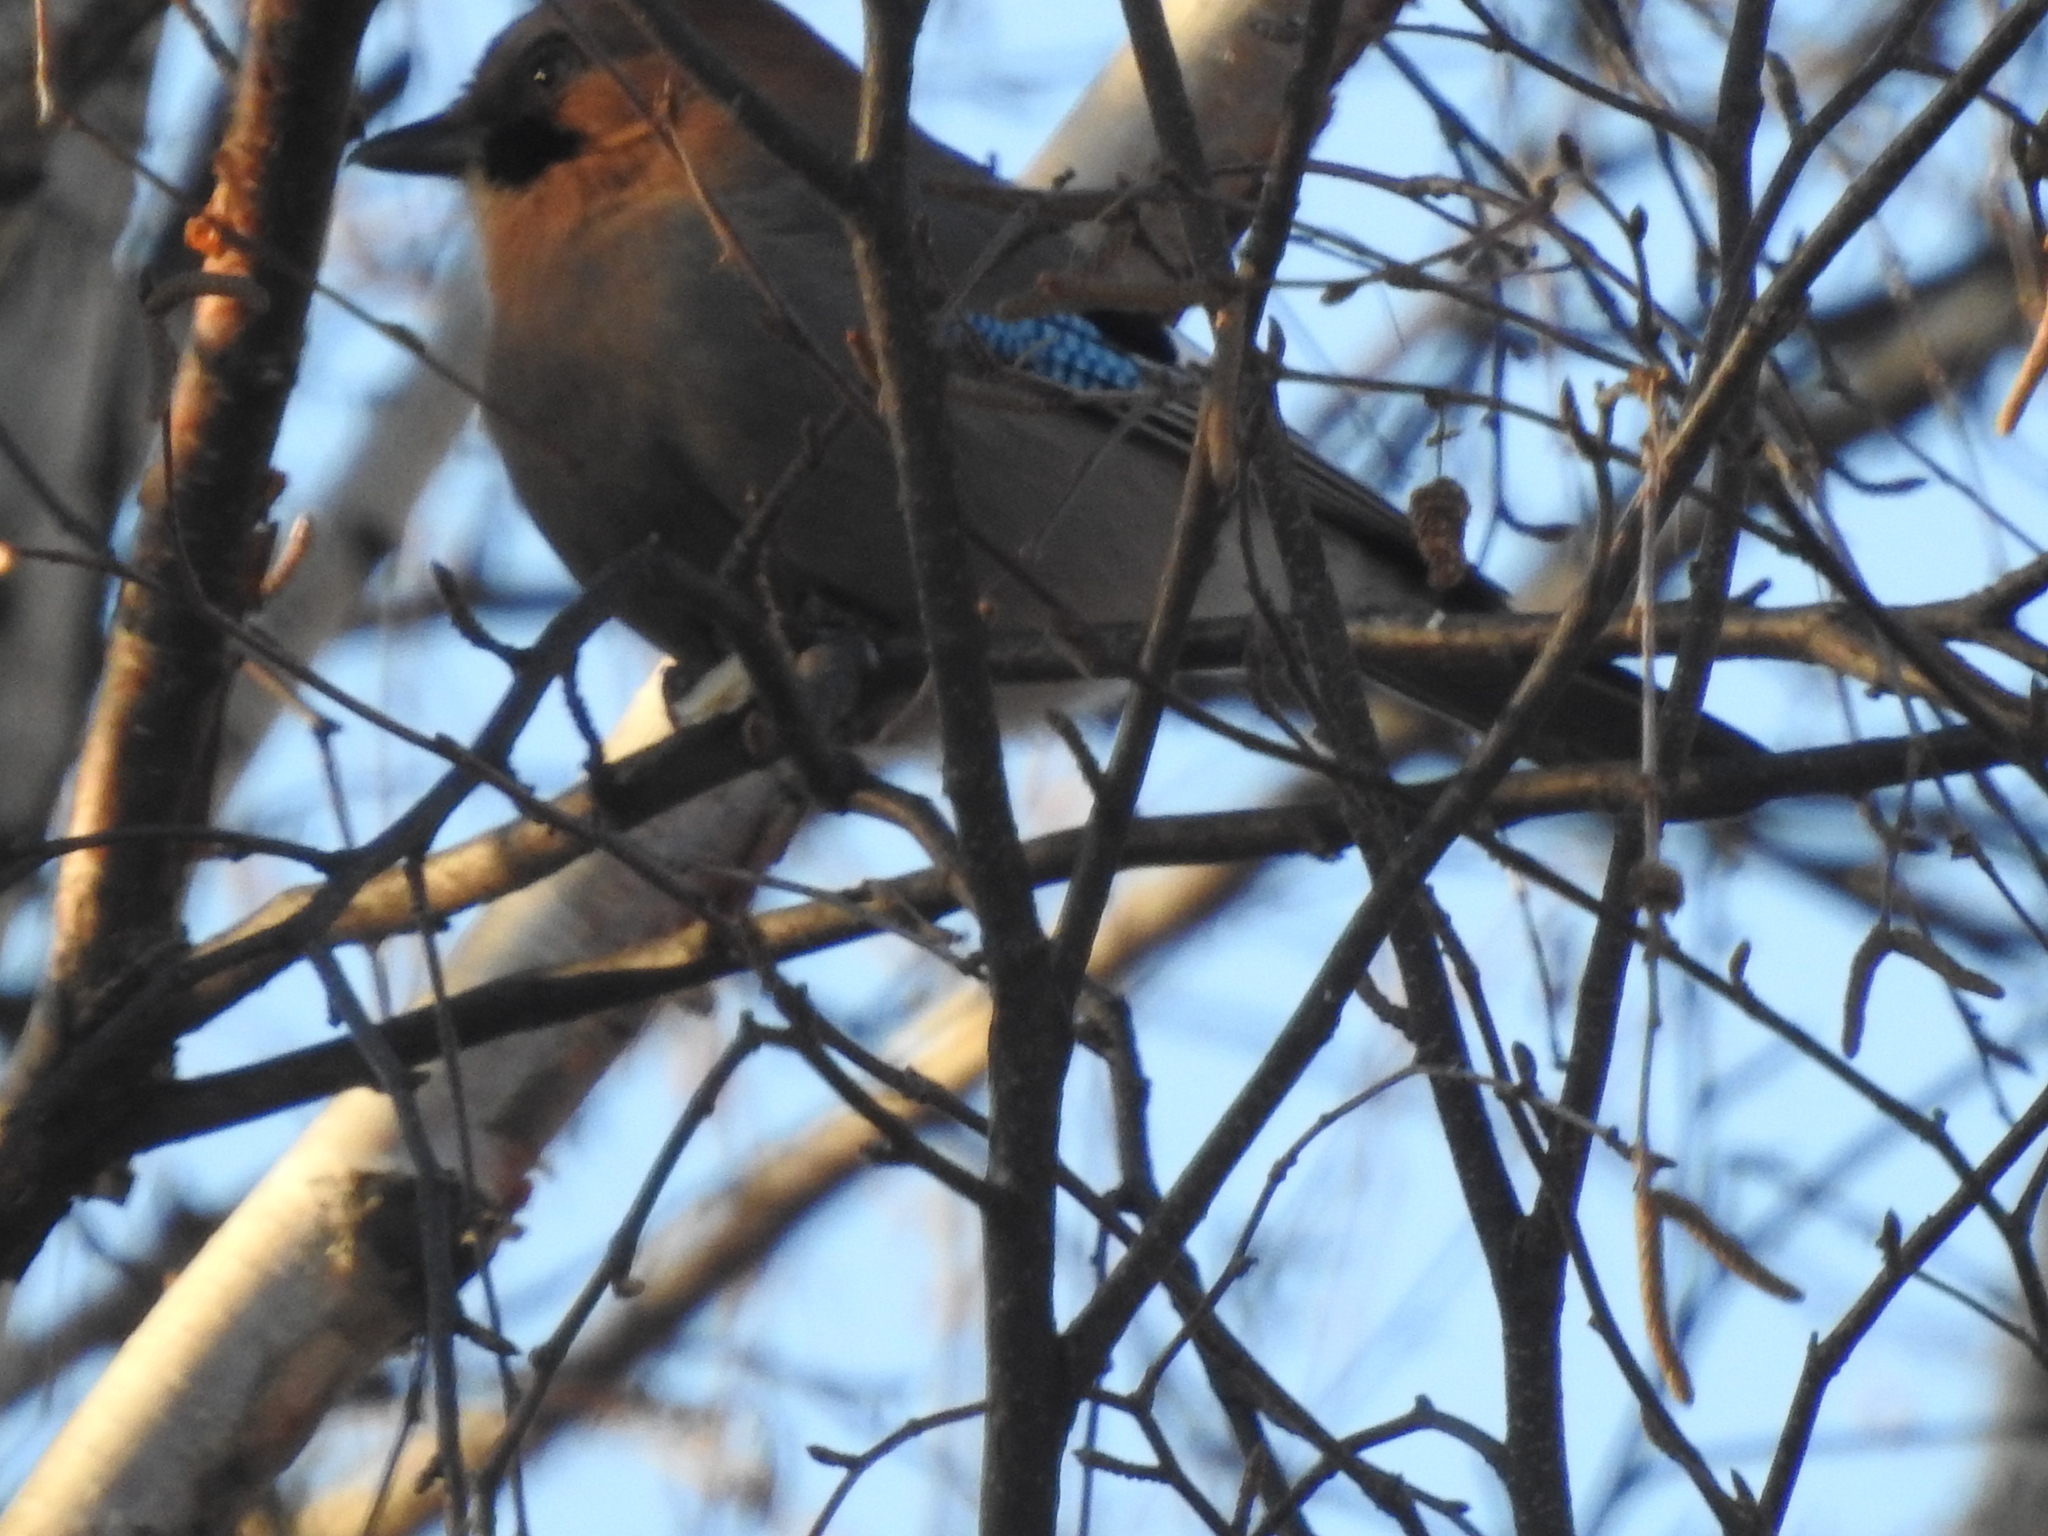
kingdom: Animalia
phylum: Chordata
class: Aves
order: Passeriformes
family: Corvidae
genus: Garrulus
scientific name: Garrulus glandarius
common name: Eurasian jay
